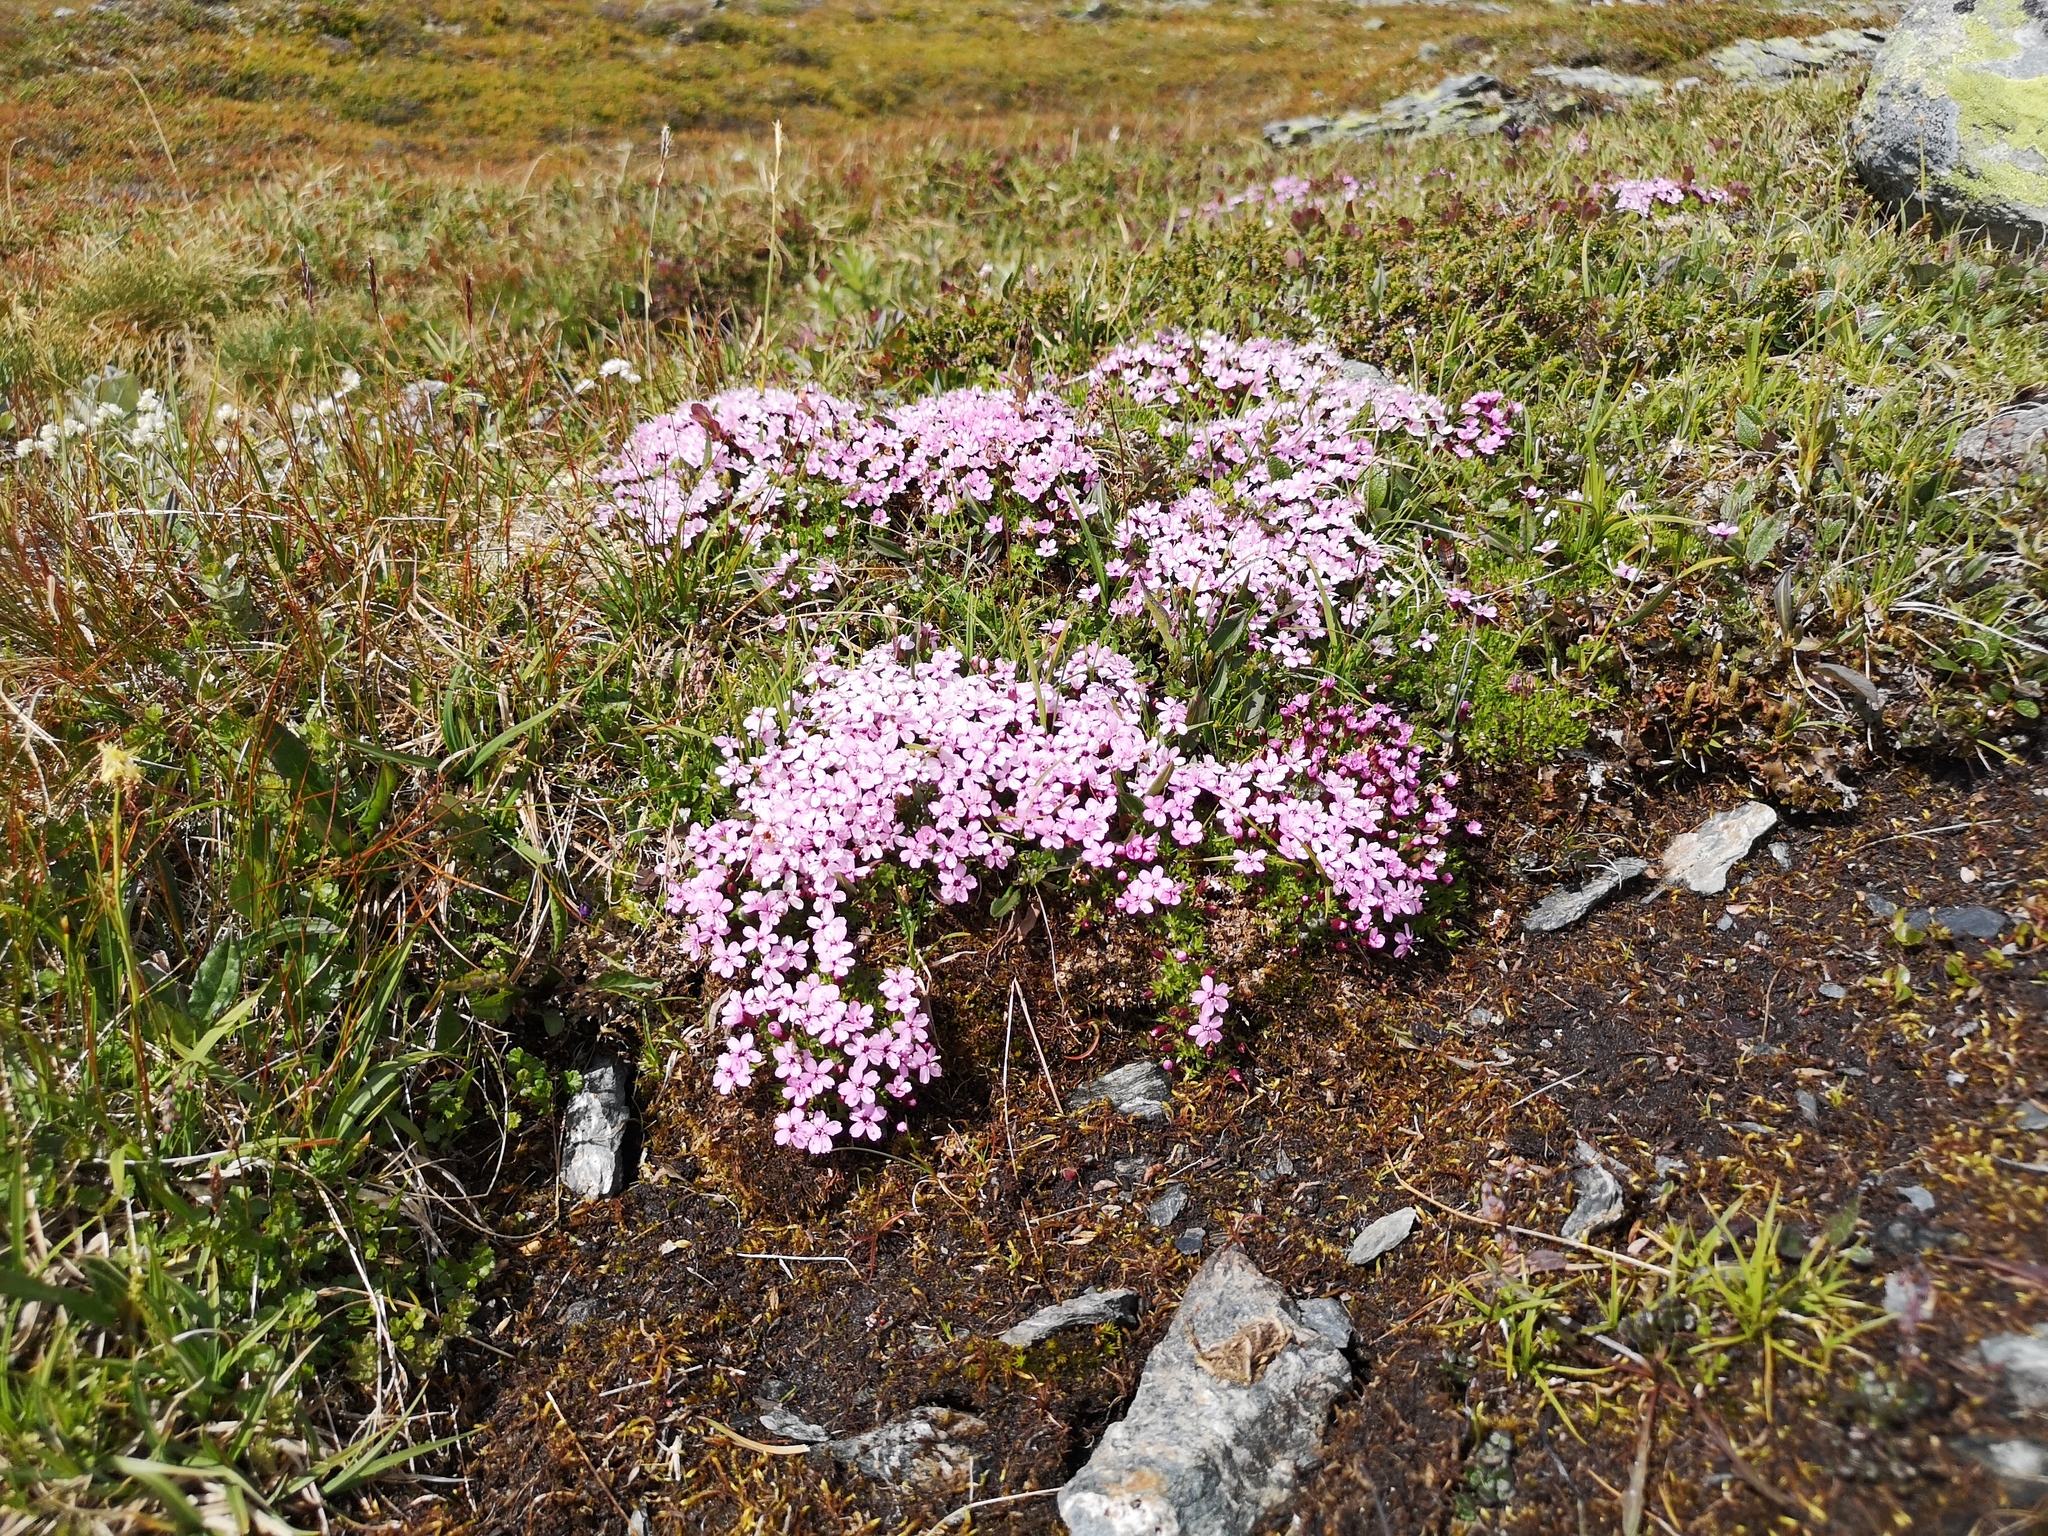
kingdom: Plantae
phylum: Tracheophyta
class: Magnoliopsida
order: Caryophyllales
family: Caryophyllaceae
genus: Silene
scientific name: Silene acaulis
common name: Moss campion
